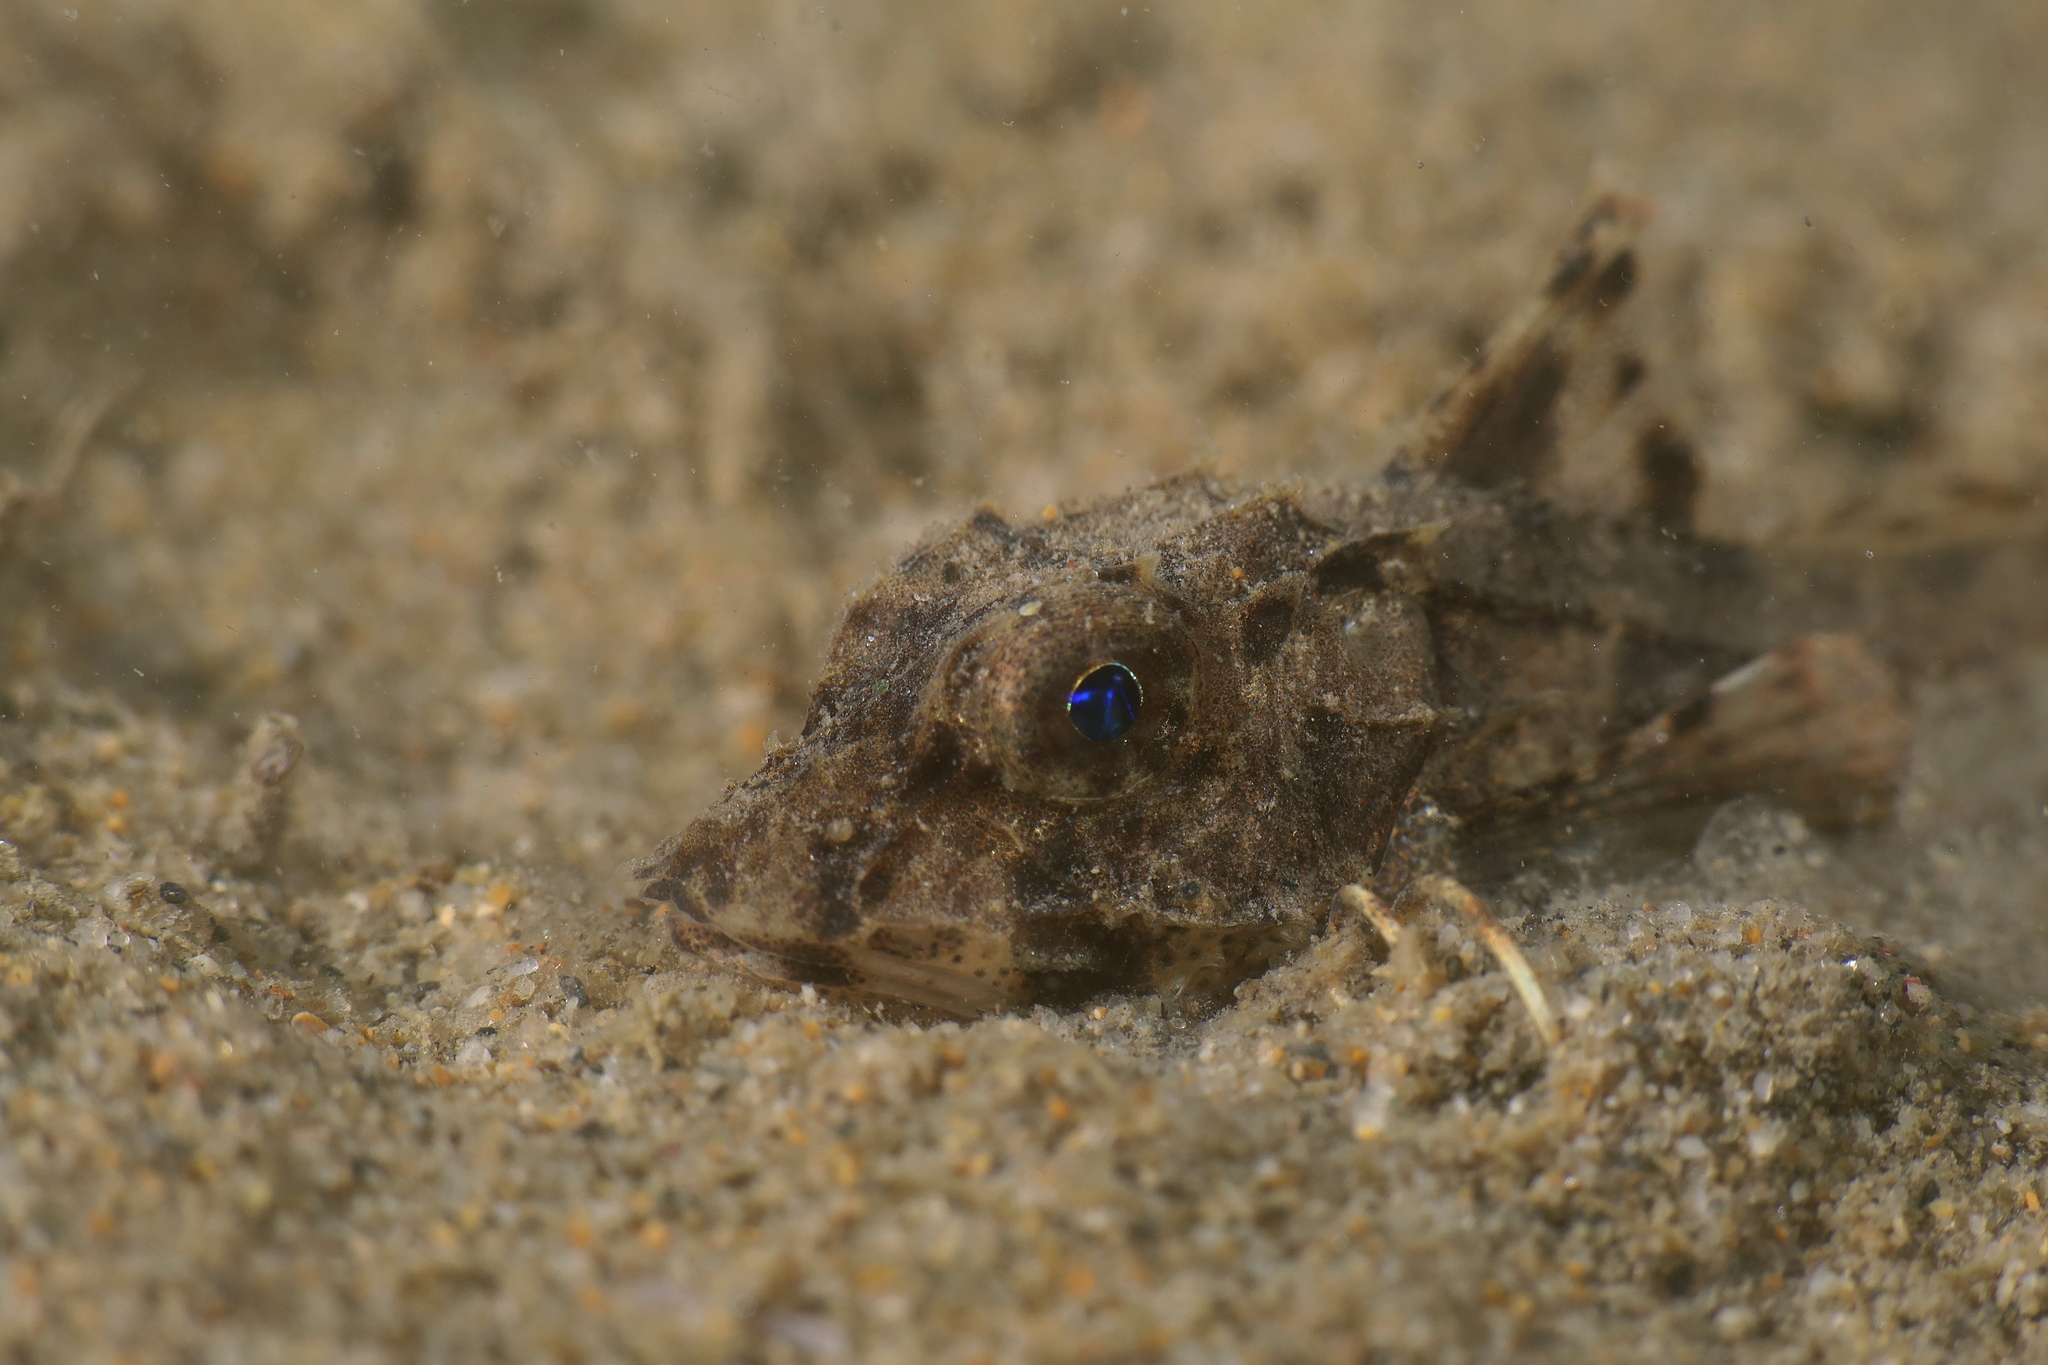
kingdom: Animalia
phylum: Chordata
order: Scorpaeniformes
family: Triglidae
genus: Chelidonichthys
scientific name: Chelidonichthys lucerna
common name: Tub gurnard
